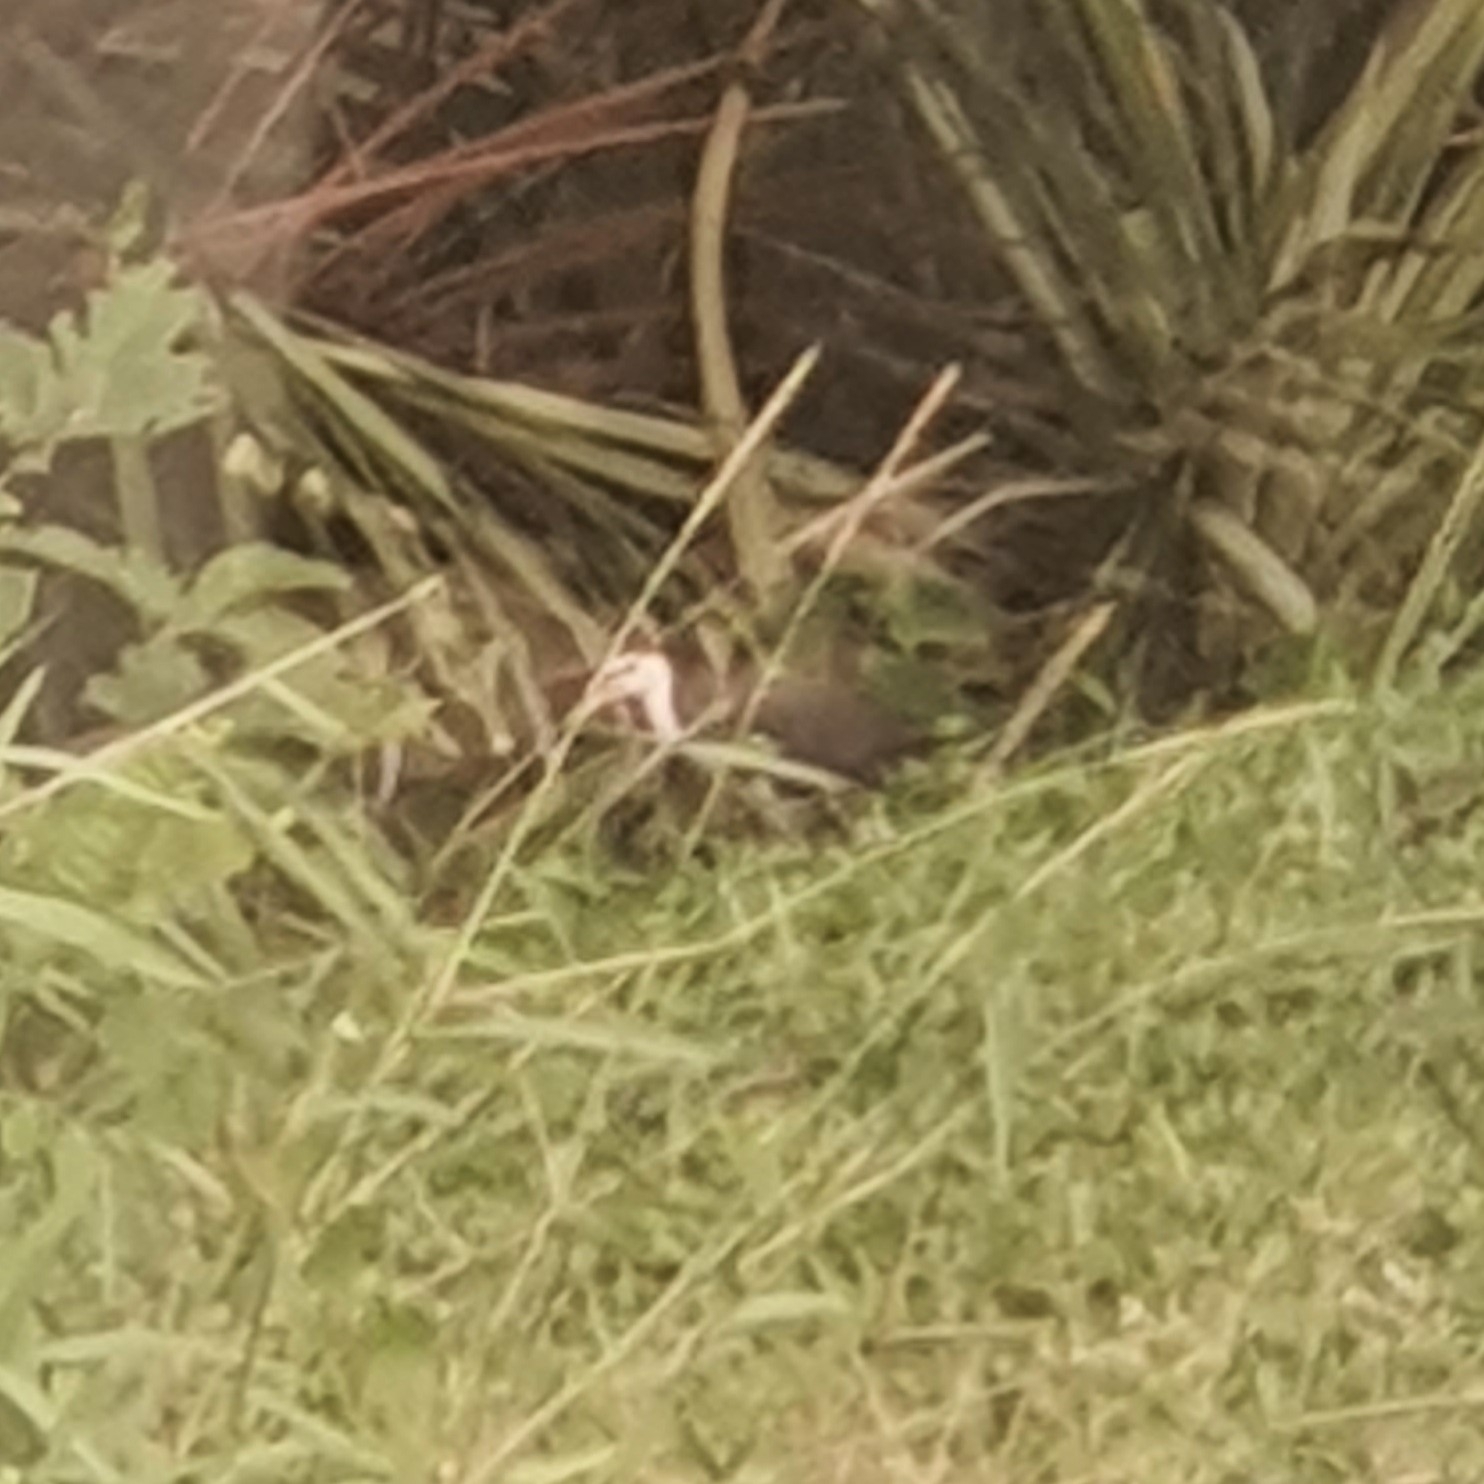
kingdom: Animalia
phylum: Chordata
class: Aves
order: Gruiformes
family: Rallidae
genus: Amaurornis
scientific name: Amaurornis phoenicurus
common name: White-breasted waterhen
